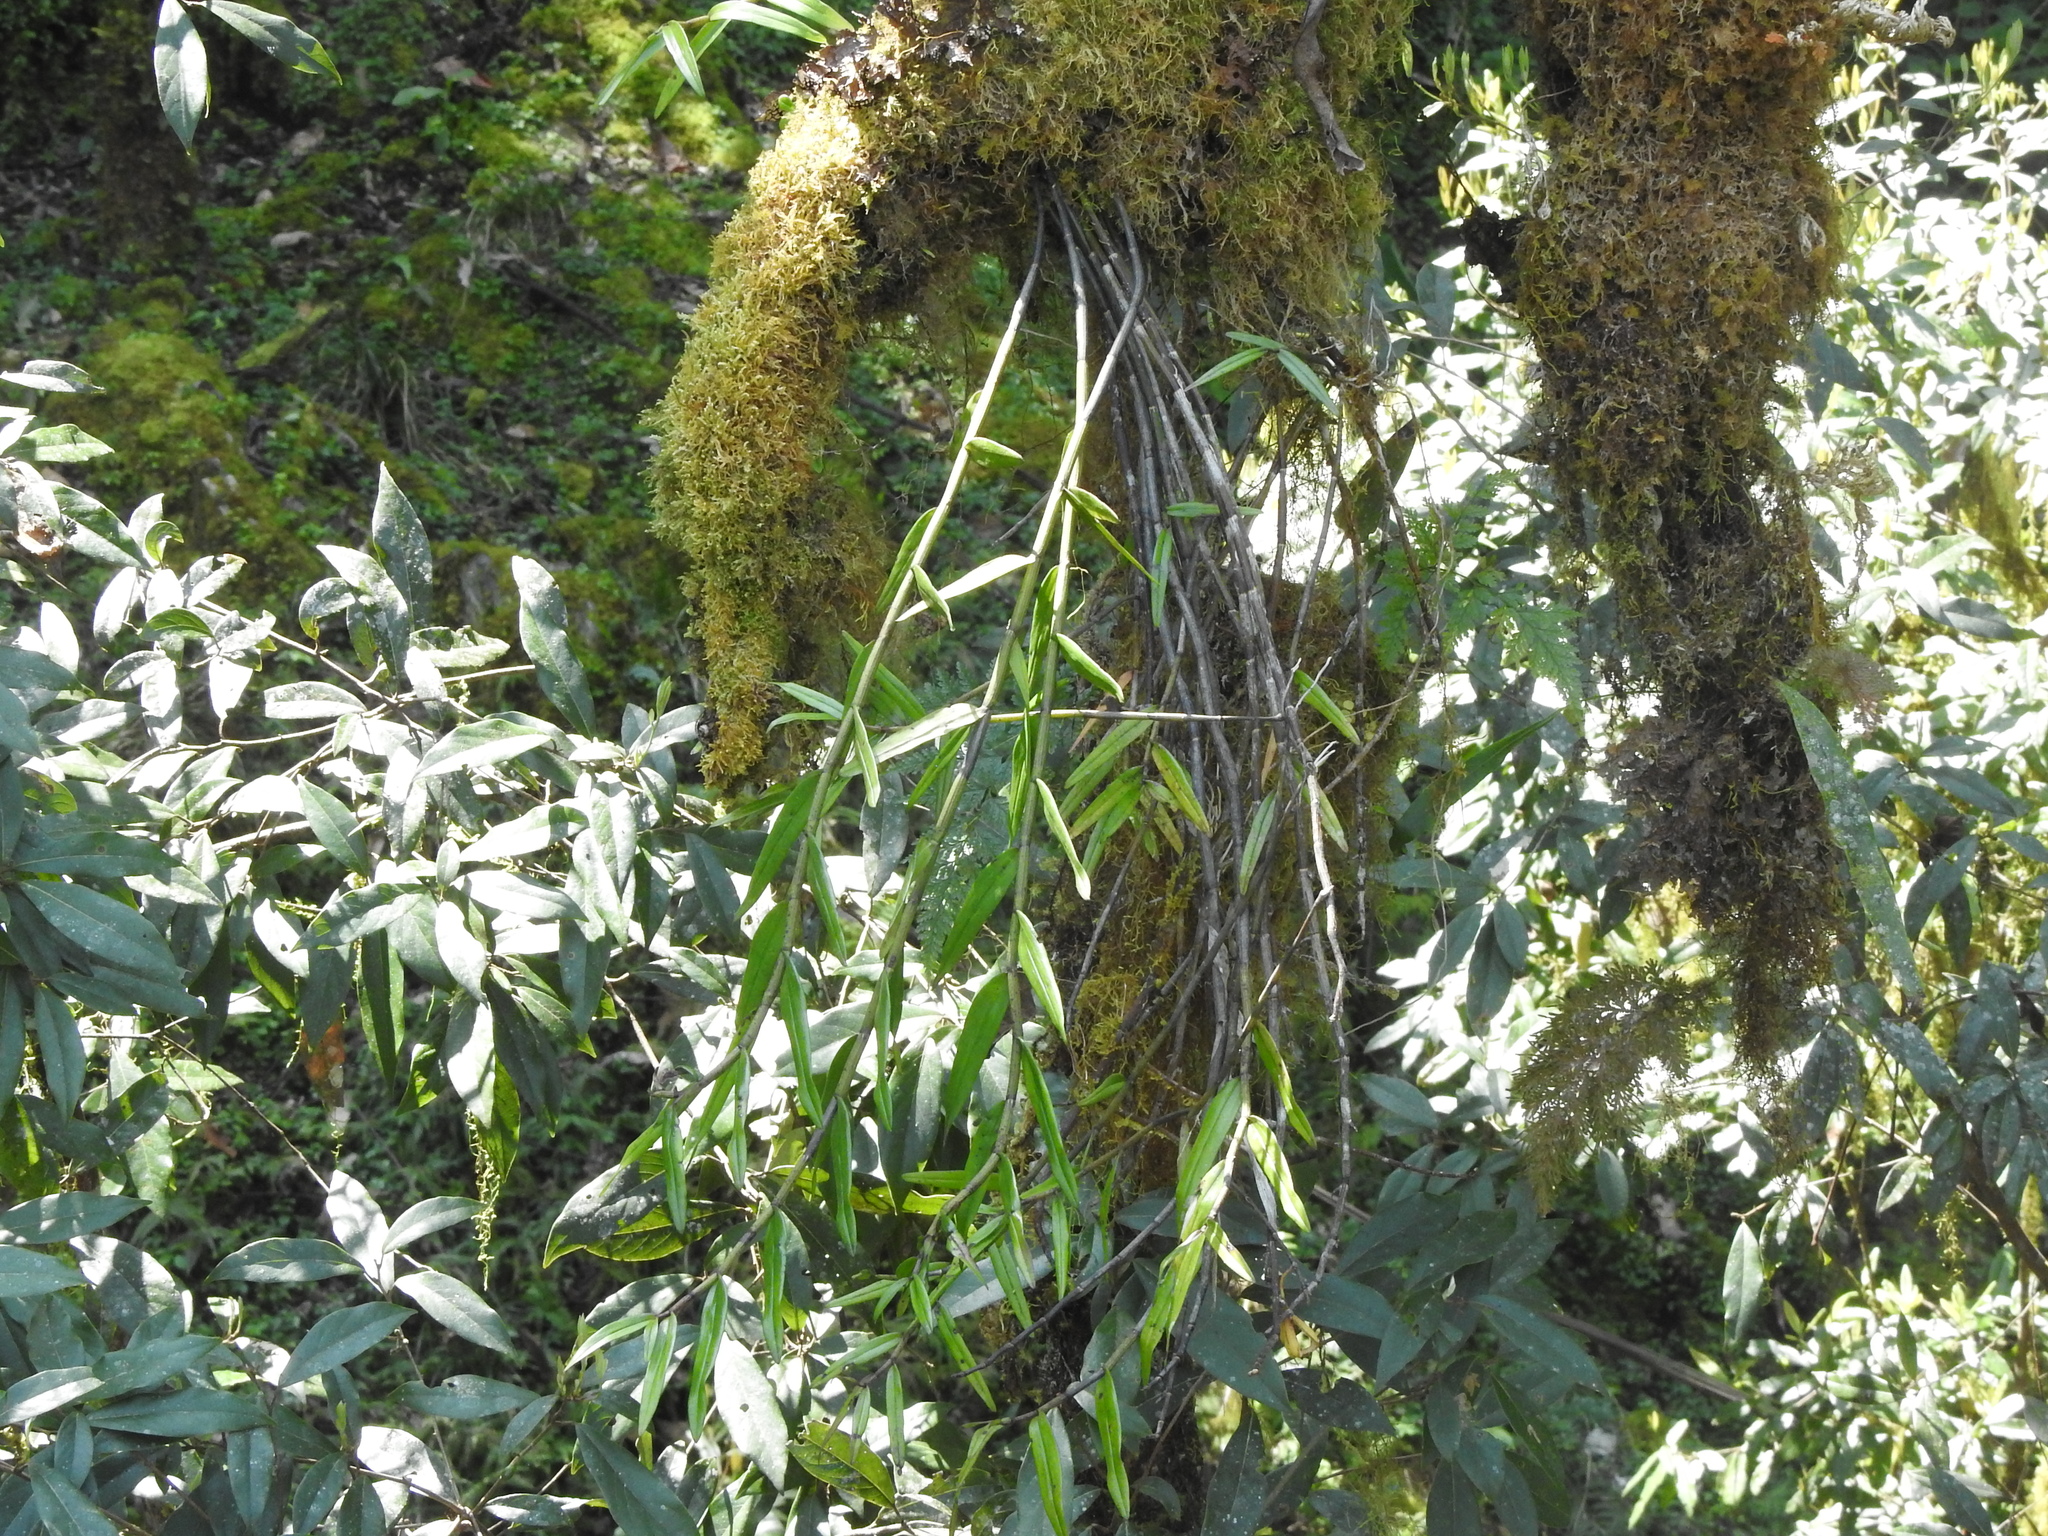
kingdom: Plantae
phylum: Tracheophyta
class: Liliopsida
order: Asparagales
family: Orchidaceae
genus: Dendrobium
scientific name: Dendrobium chryseum
